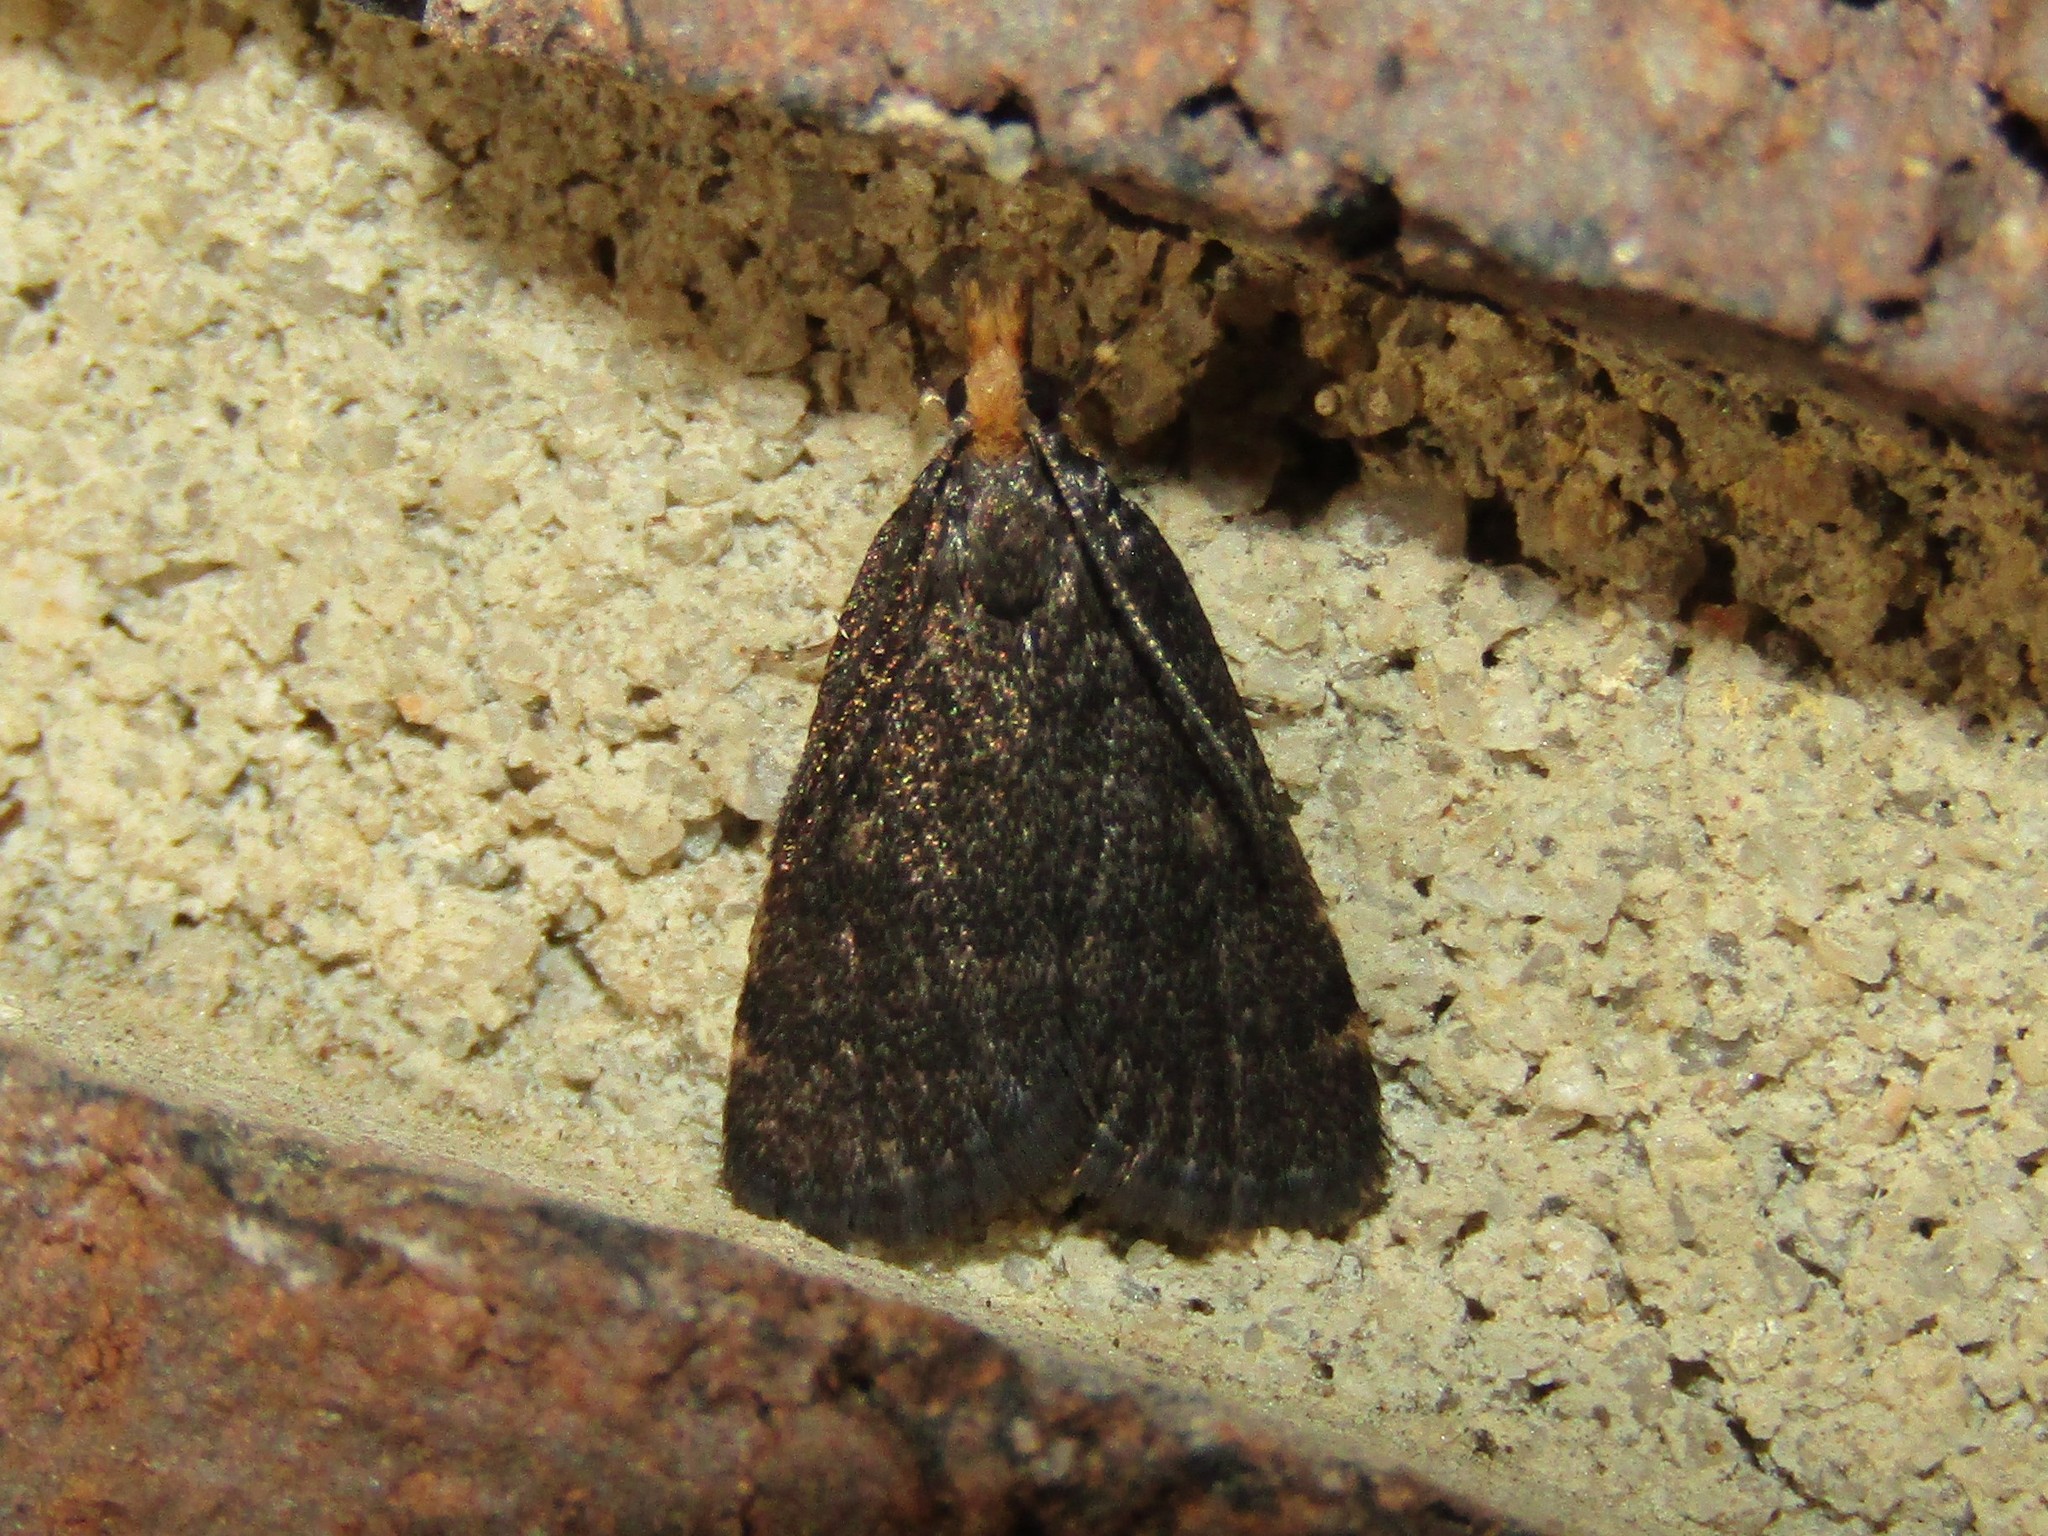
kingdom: Animalia
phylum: Arthropoda
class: Insecta
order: Lepidoptera
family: Crambidae
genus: Pyrausta
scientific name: Pyrausta merrickalis
